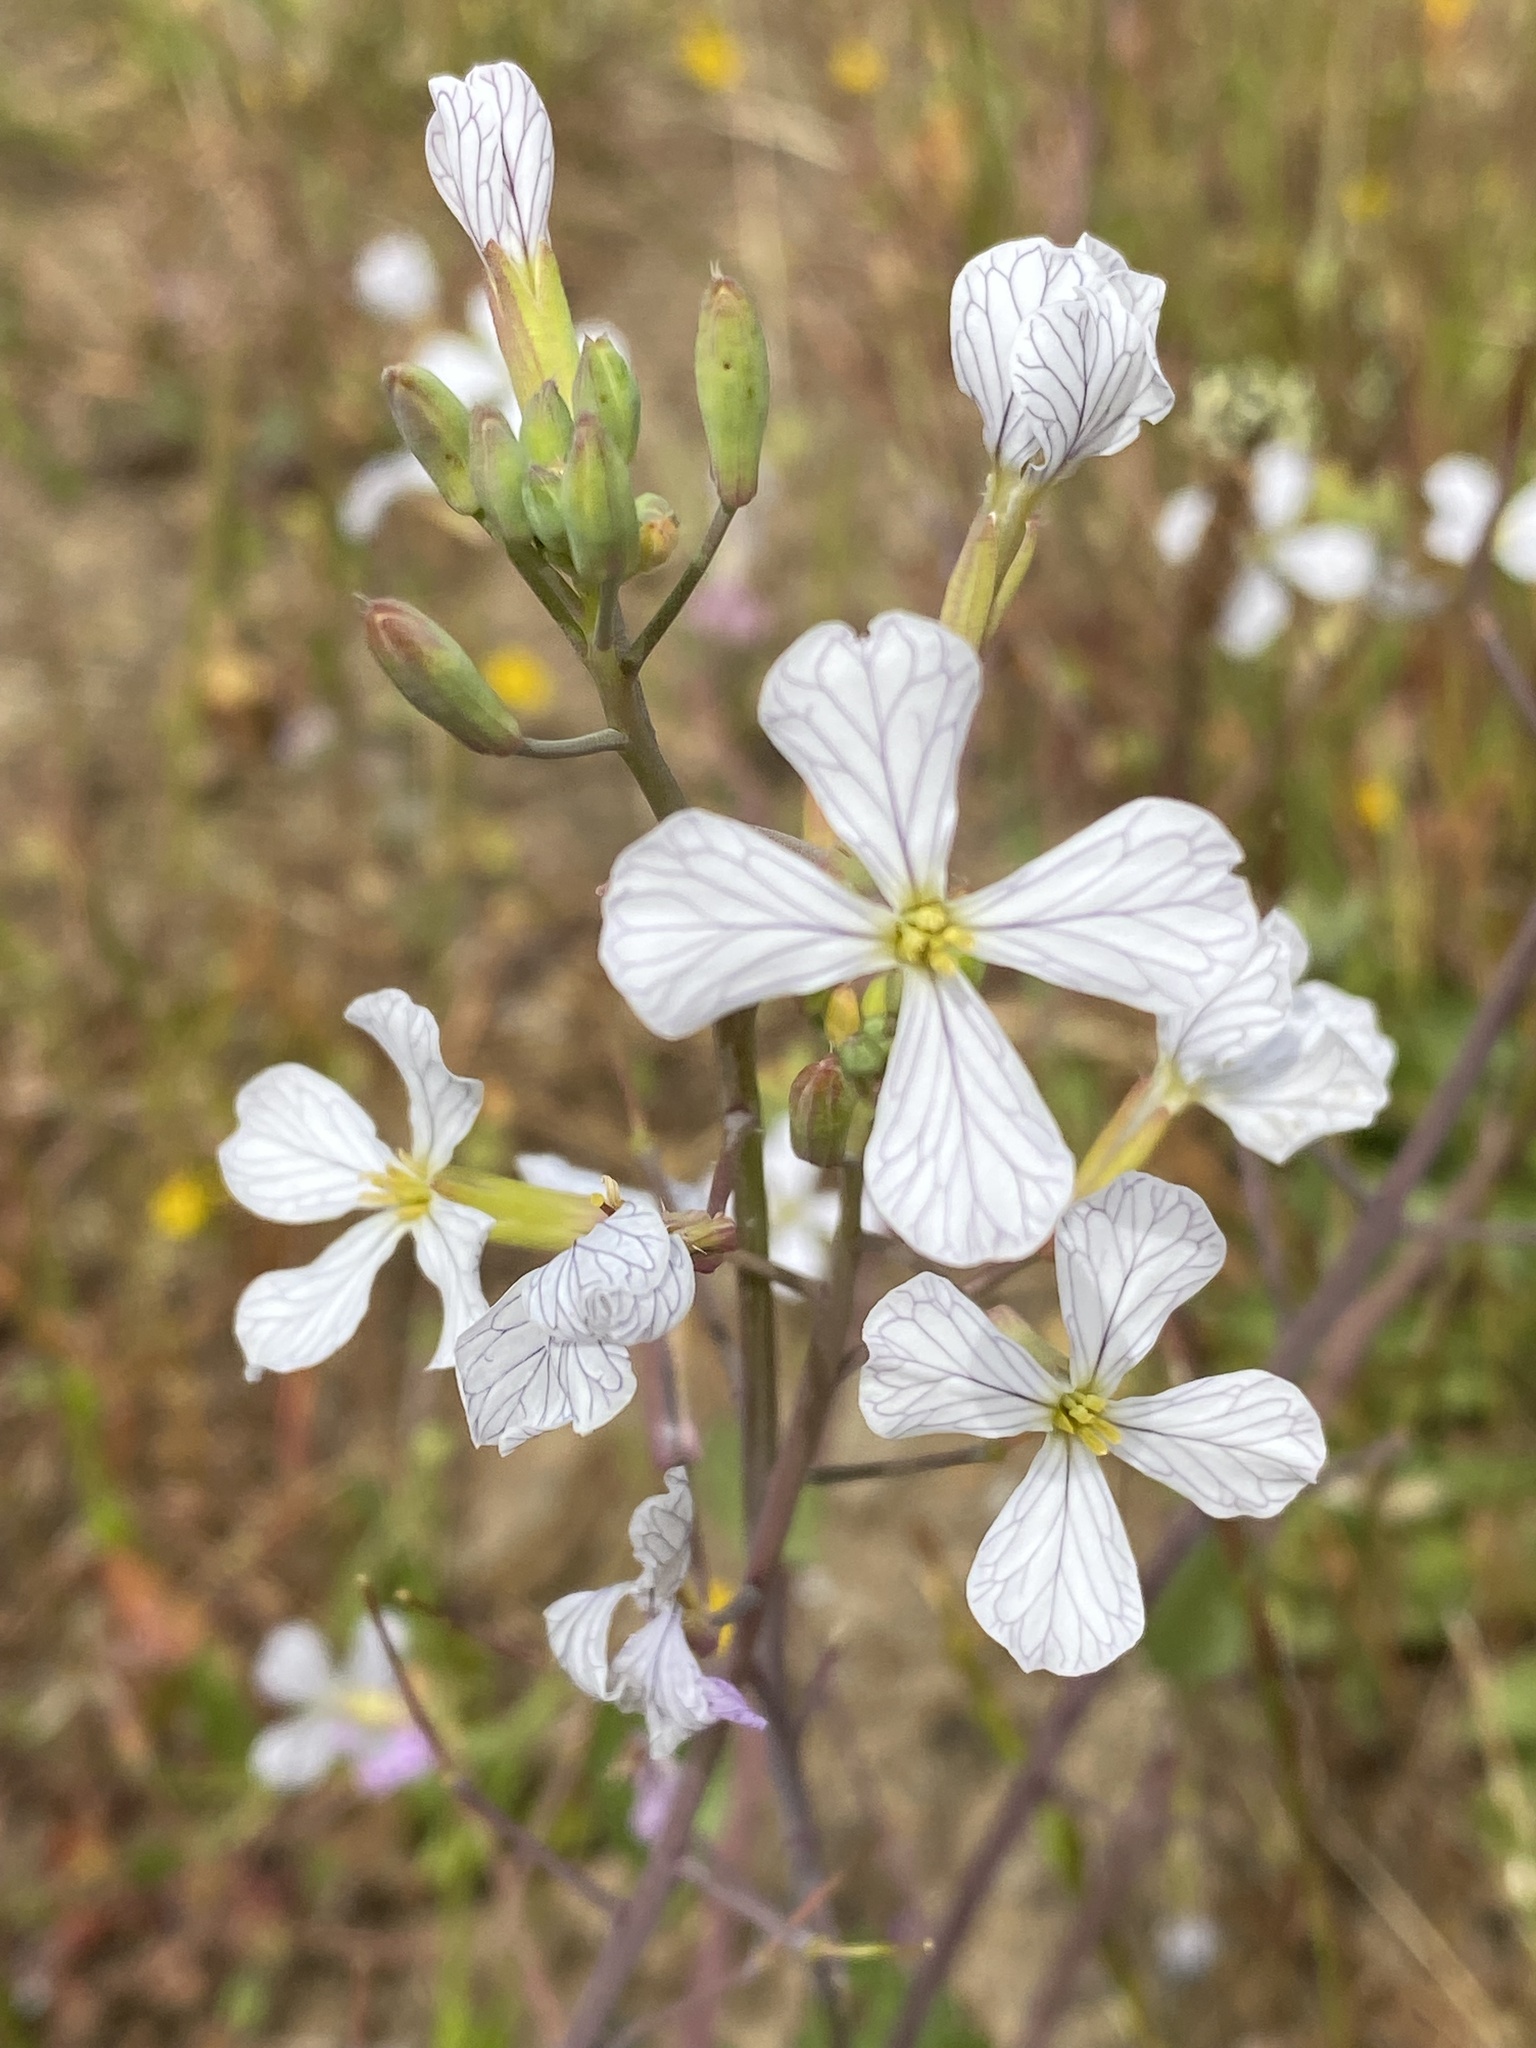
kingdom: Plantae
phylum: Tracheophyta
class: Magnoliopsida
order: Brassicales
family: Brassicaceae
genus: Raphanus
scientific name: Raphanus sativus
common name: Cultivated radish
